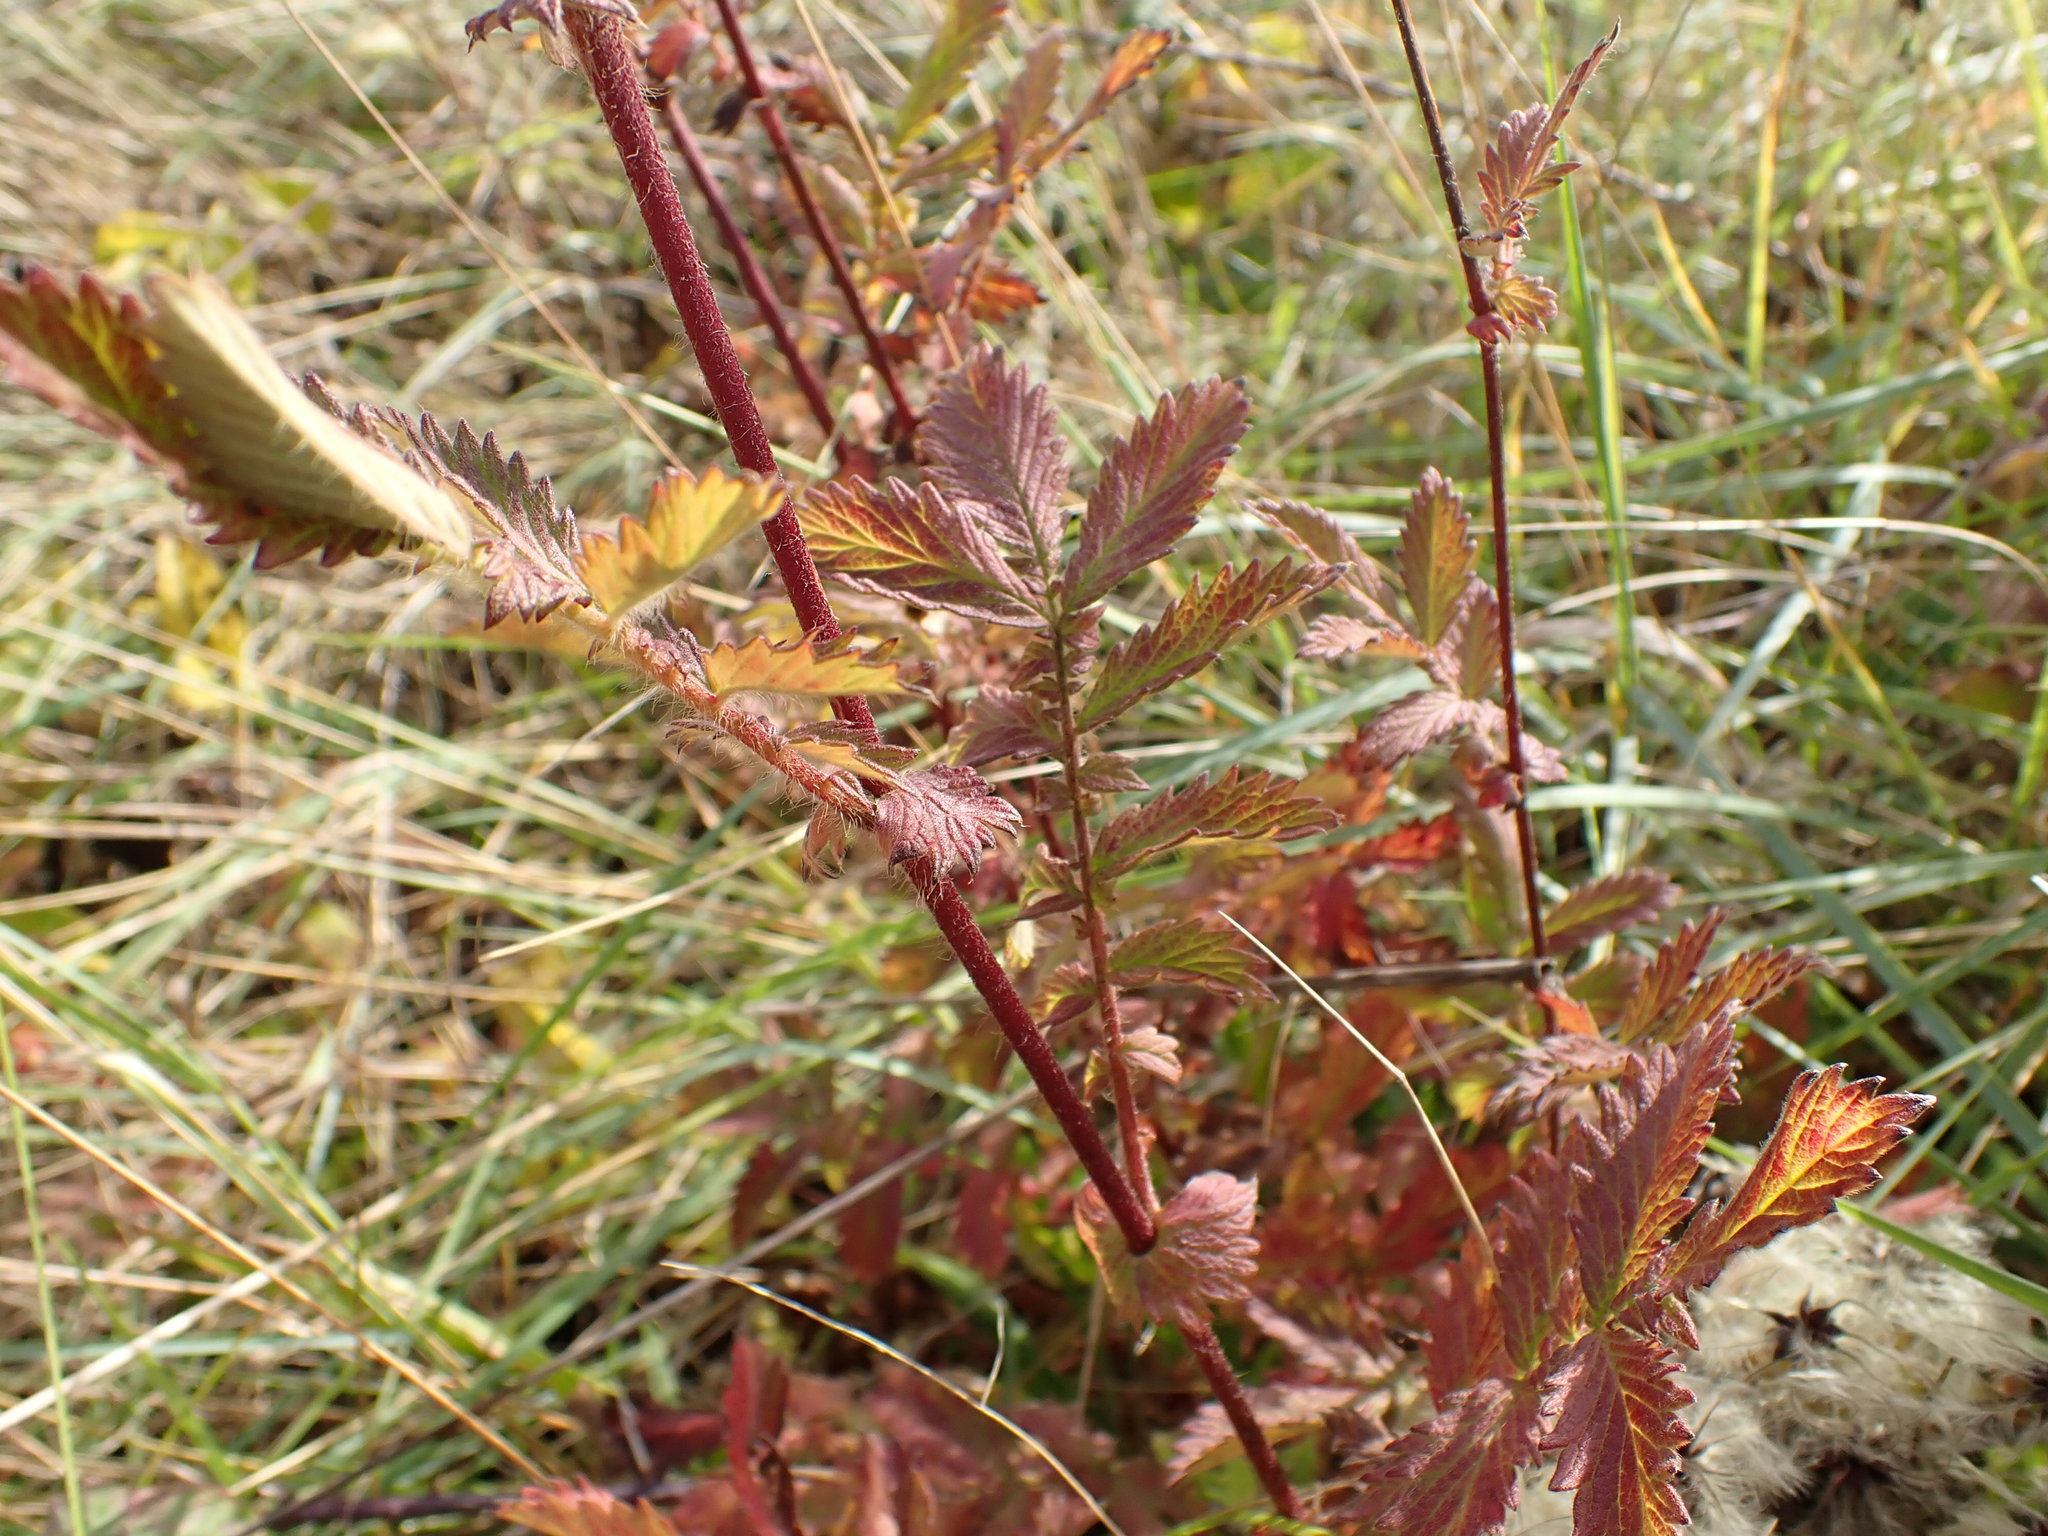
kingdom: Plantae
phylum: Tracheophyta
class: Magnoliopsida
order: Rosales
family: Rosaceae
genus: Agrimonia
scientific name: Agrimonia eupatoria
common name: Agrimony
